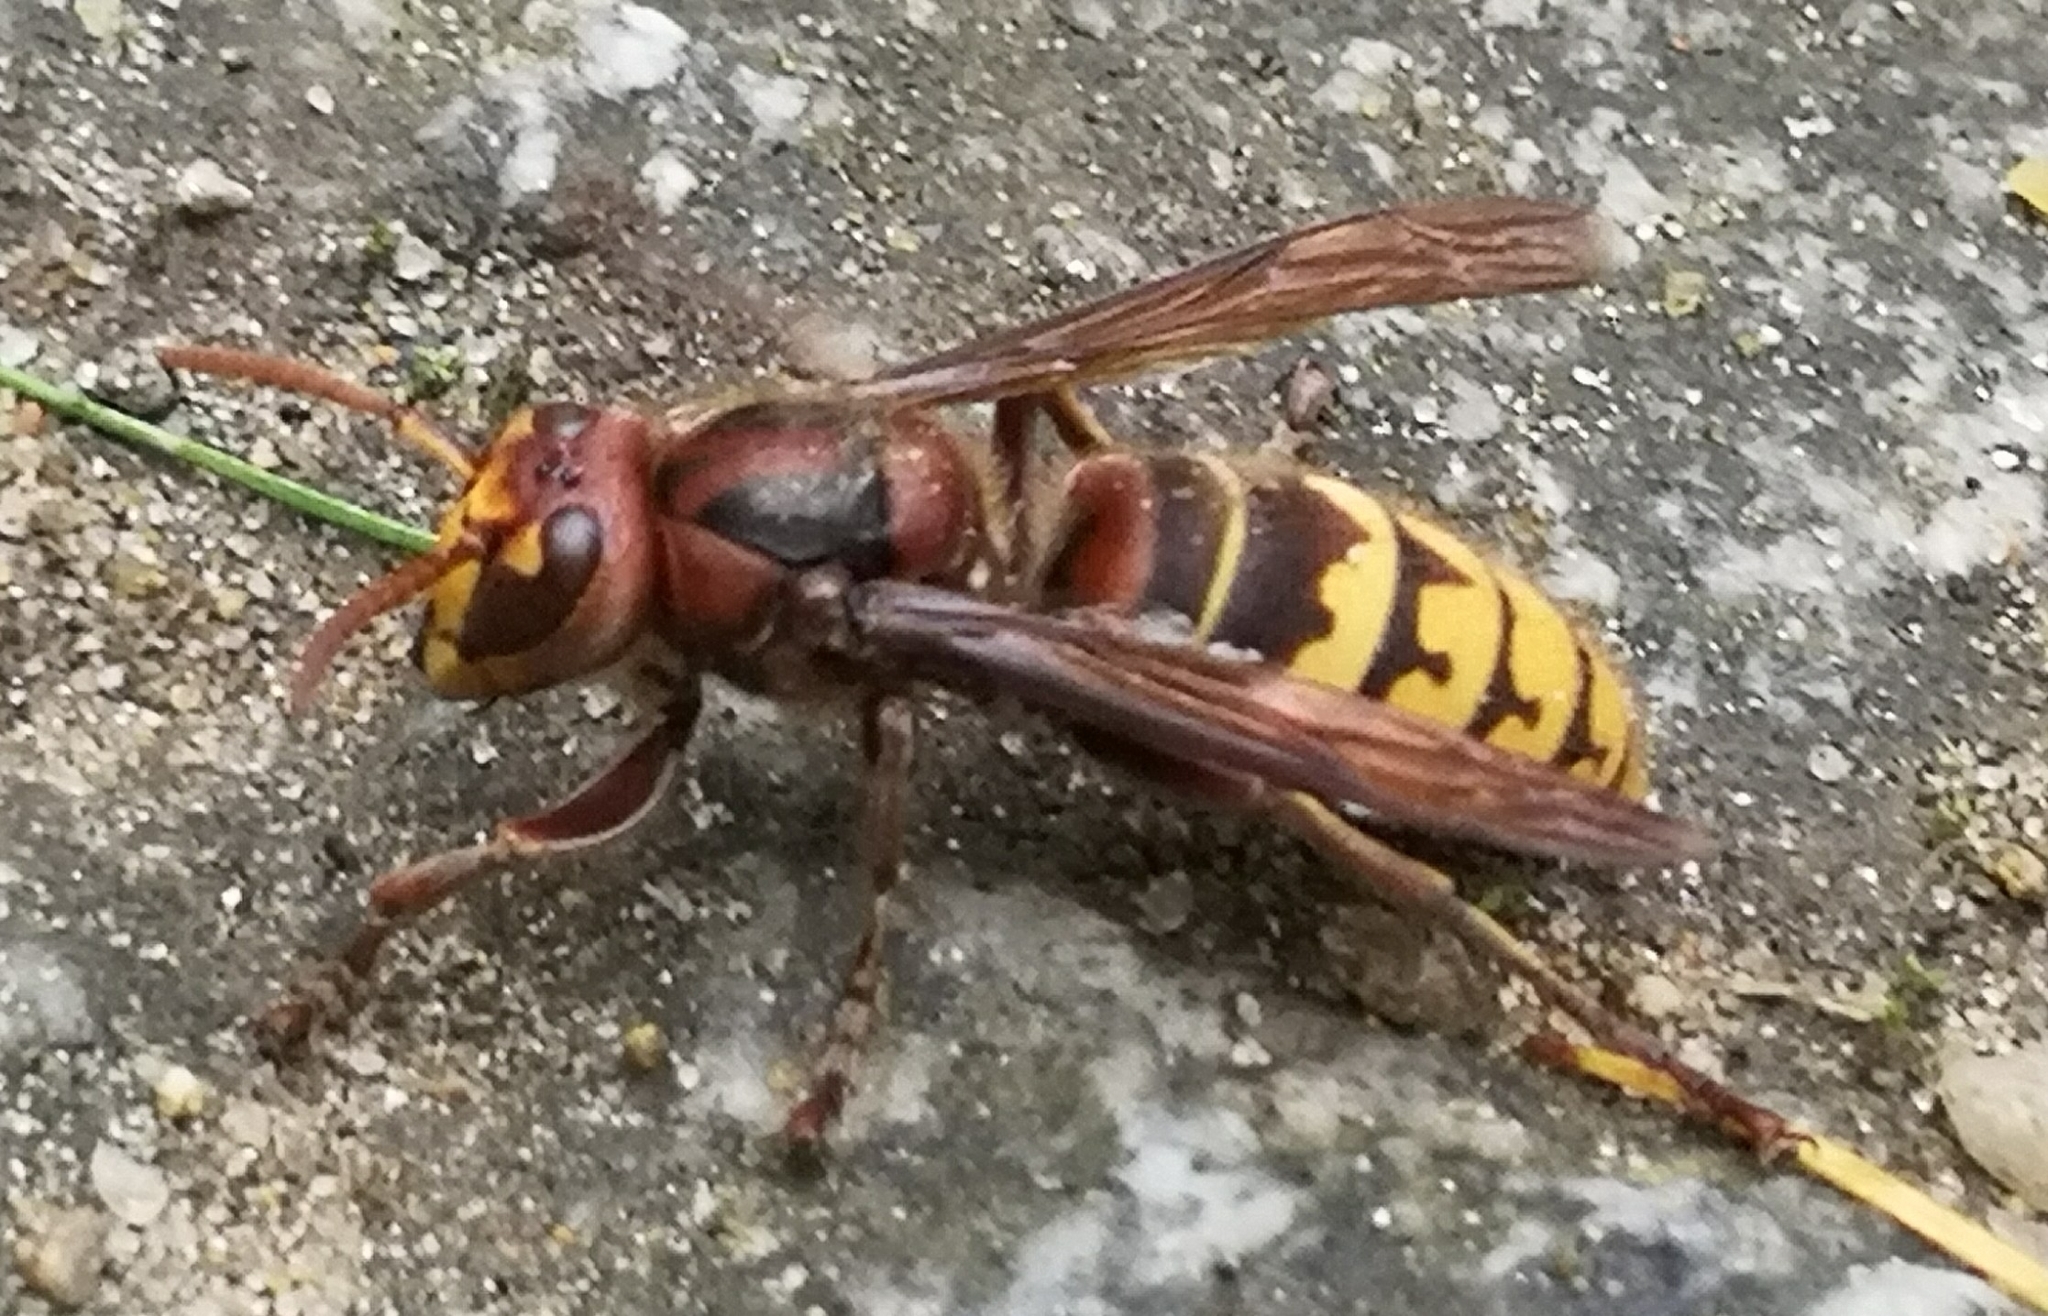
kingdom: Animalia
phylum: Arthropoda
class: Insecta
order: Hymenoptera
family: Vespidae
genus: Vespa
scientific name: Vespa crabro
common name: Hornet
